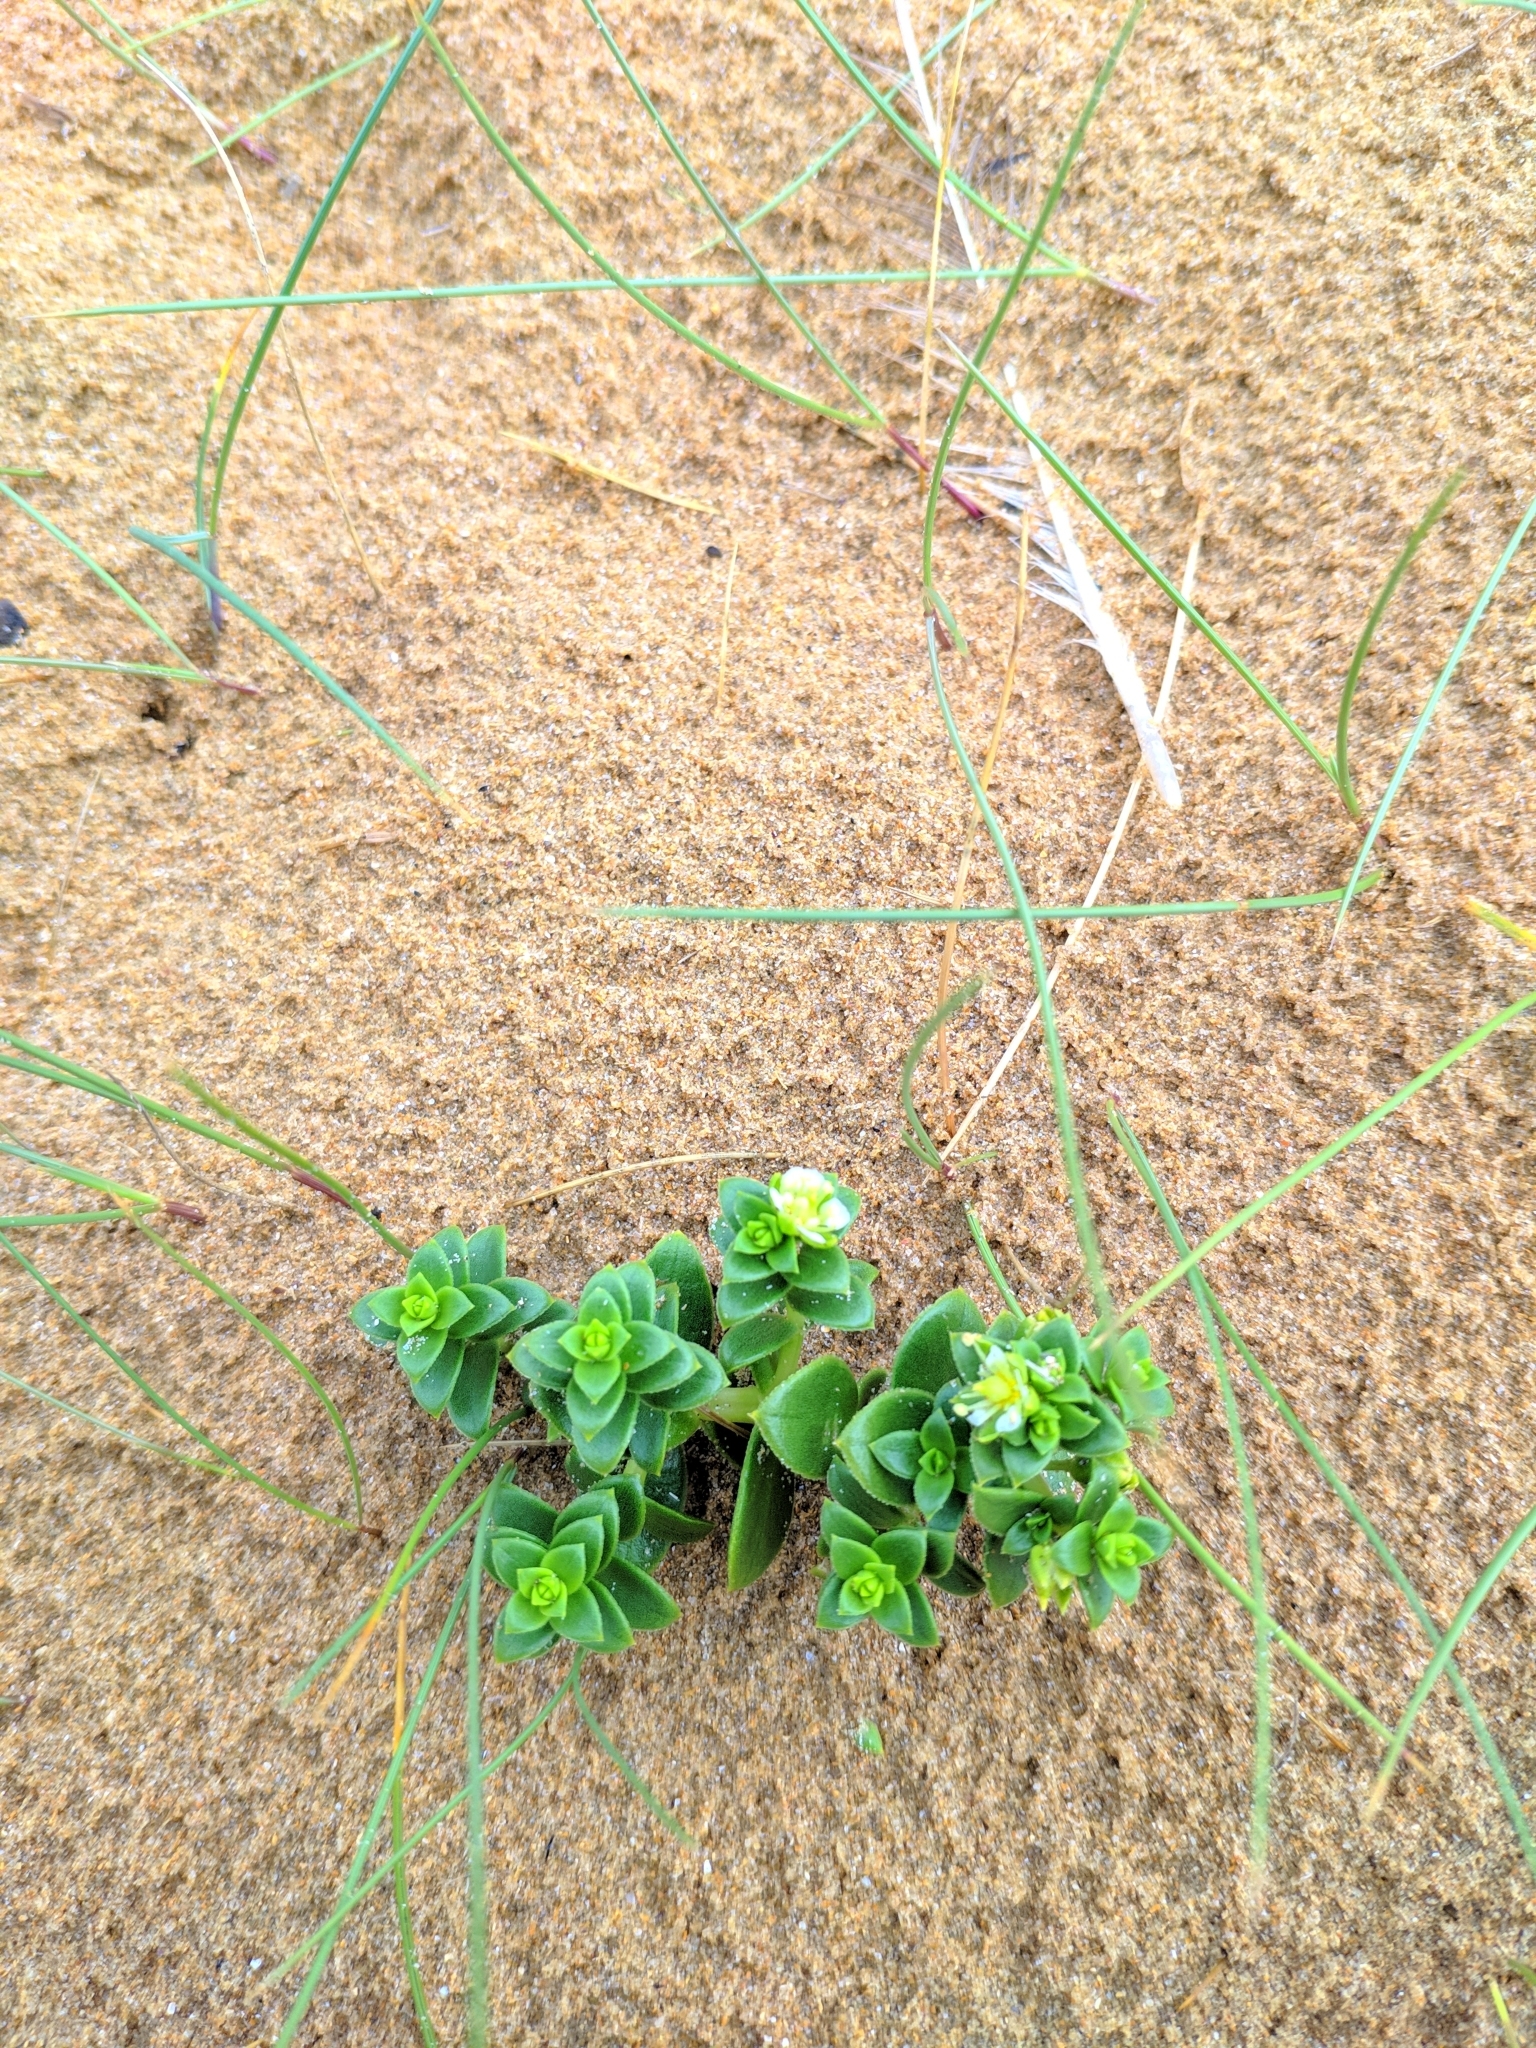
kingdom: Plantae
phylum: Tracheophyta
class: Magnoliopsida
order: Caryophyllales
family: Caryophyllaceae
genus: Honckenya
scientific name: Honckenya peploides
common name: Sea sandwort
